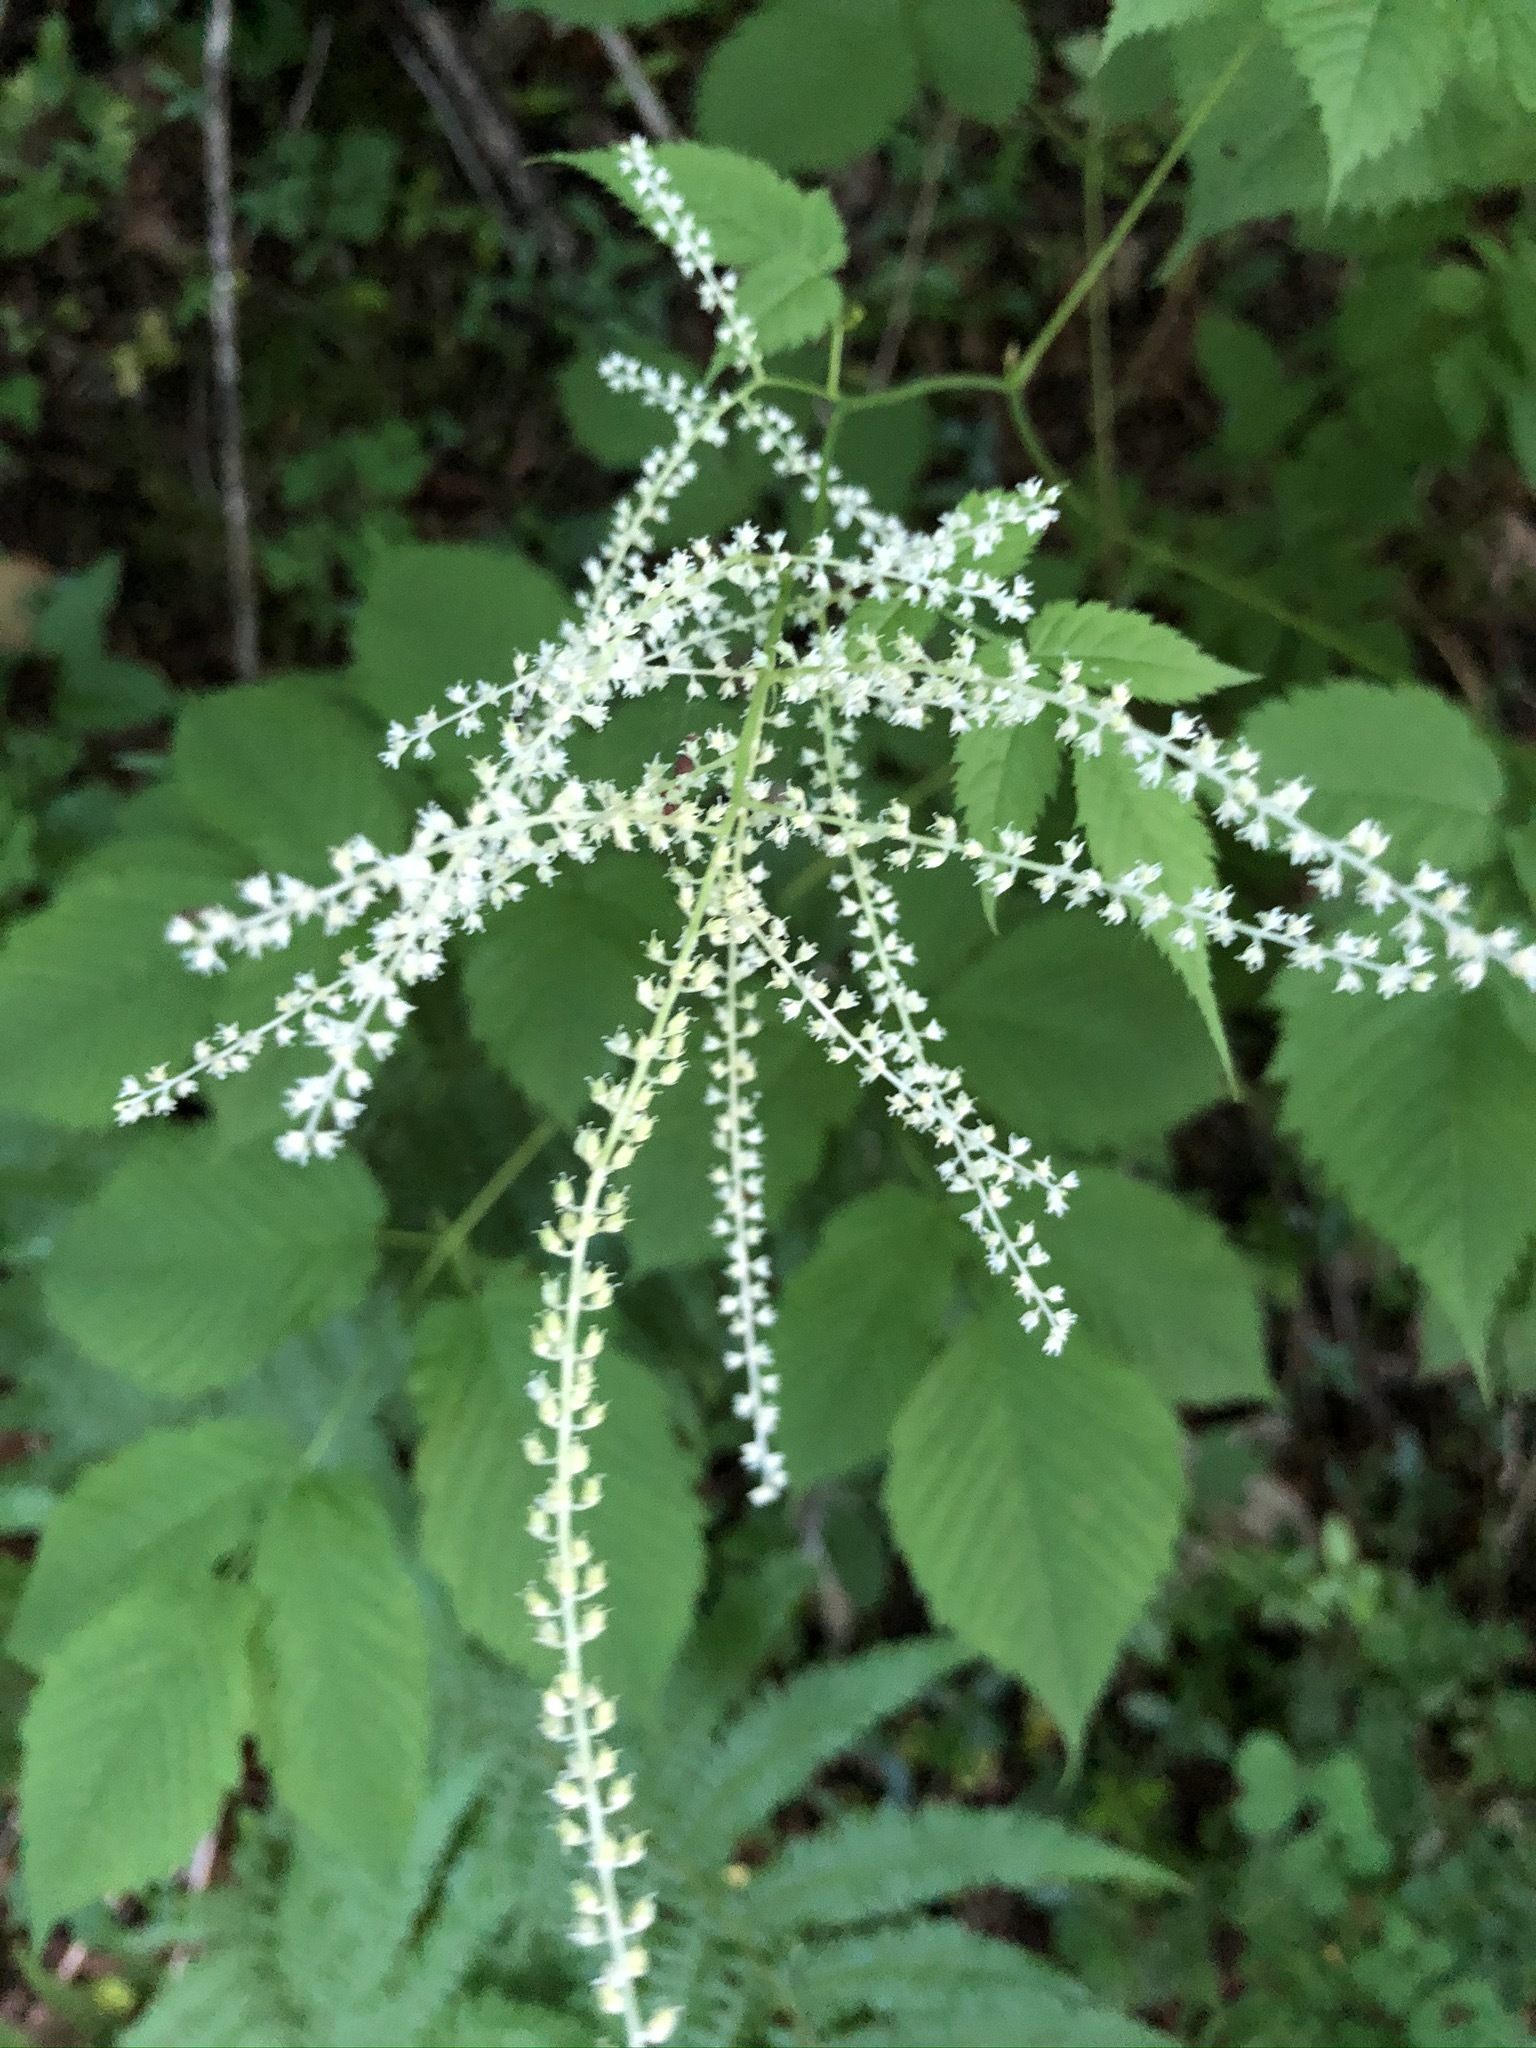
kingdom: Plantae
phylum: Tracheophyta
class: Magnoliopsida
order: Rosales
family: Rosaceae
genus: Aruncus
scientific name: Aruncus dioicus
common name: Buck's-beard
